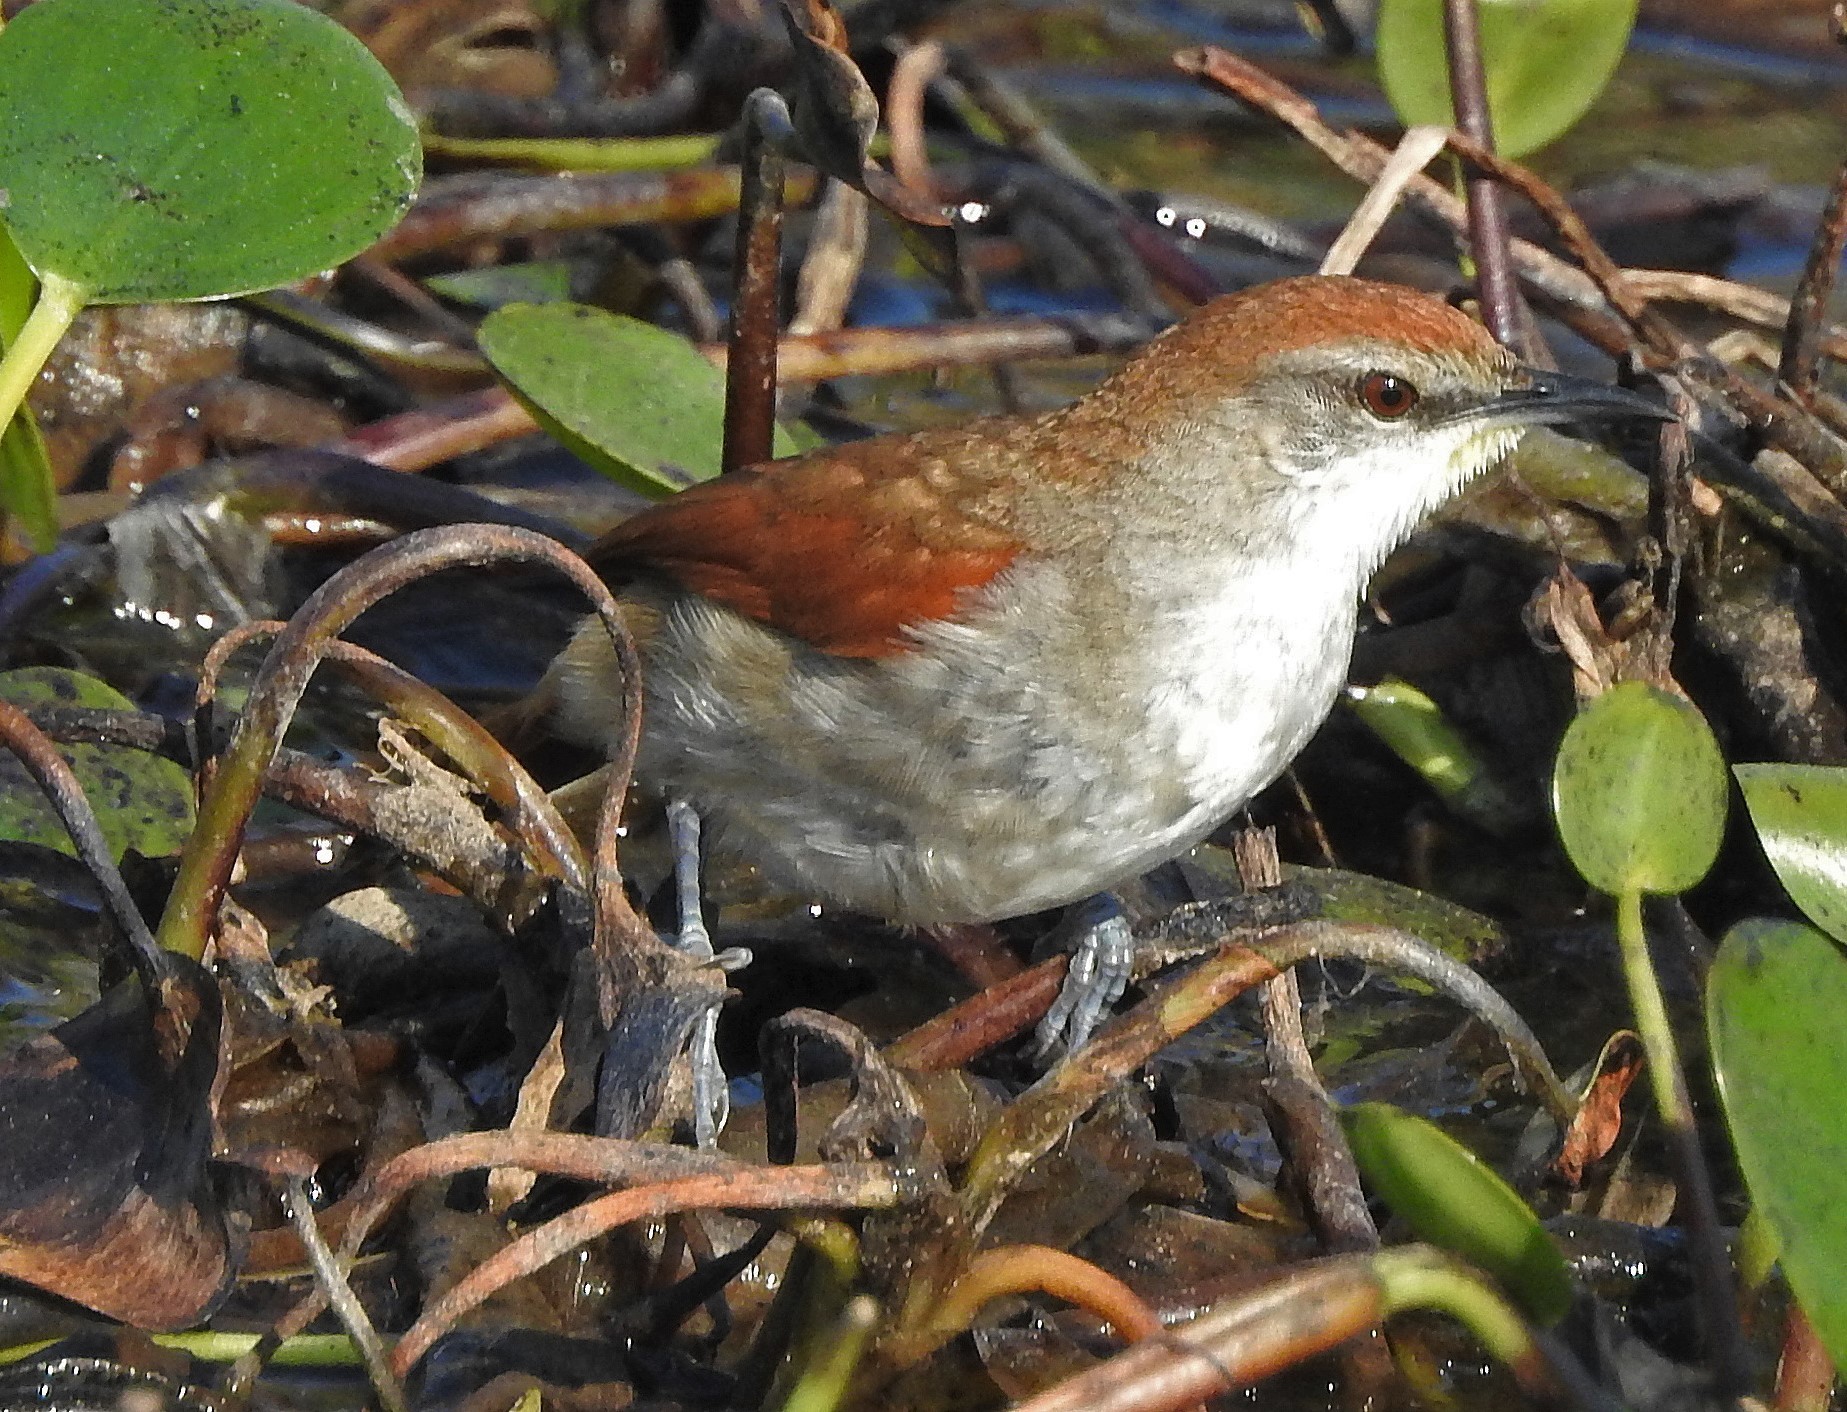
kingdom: Animalia
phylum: Chordata
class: Aves
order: Passeriformes
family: Furnariidae
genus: Certhiaxis
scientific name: Certhiaxis cinnamomeus
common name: Yellow-chinned spinetail
